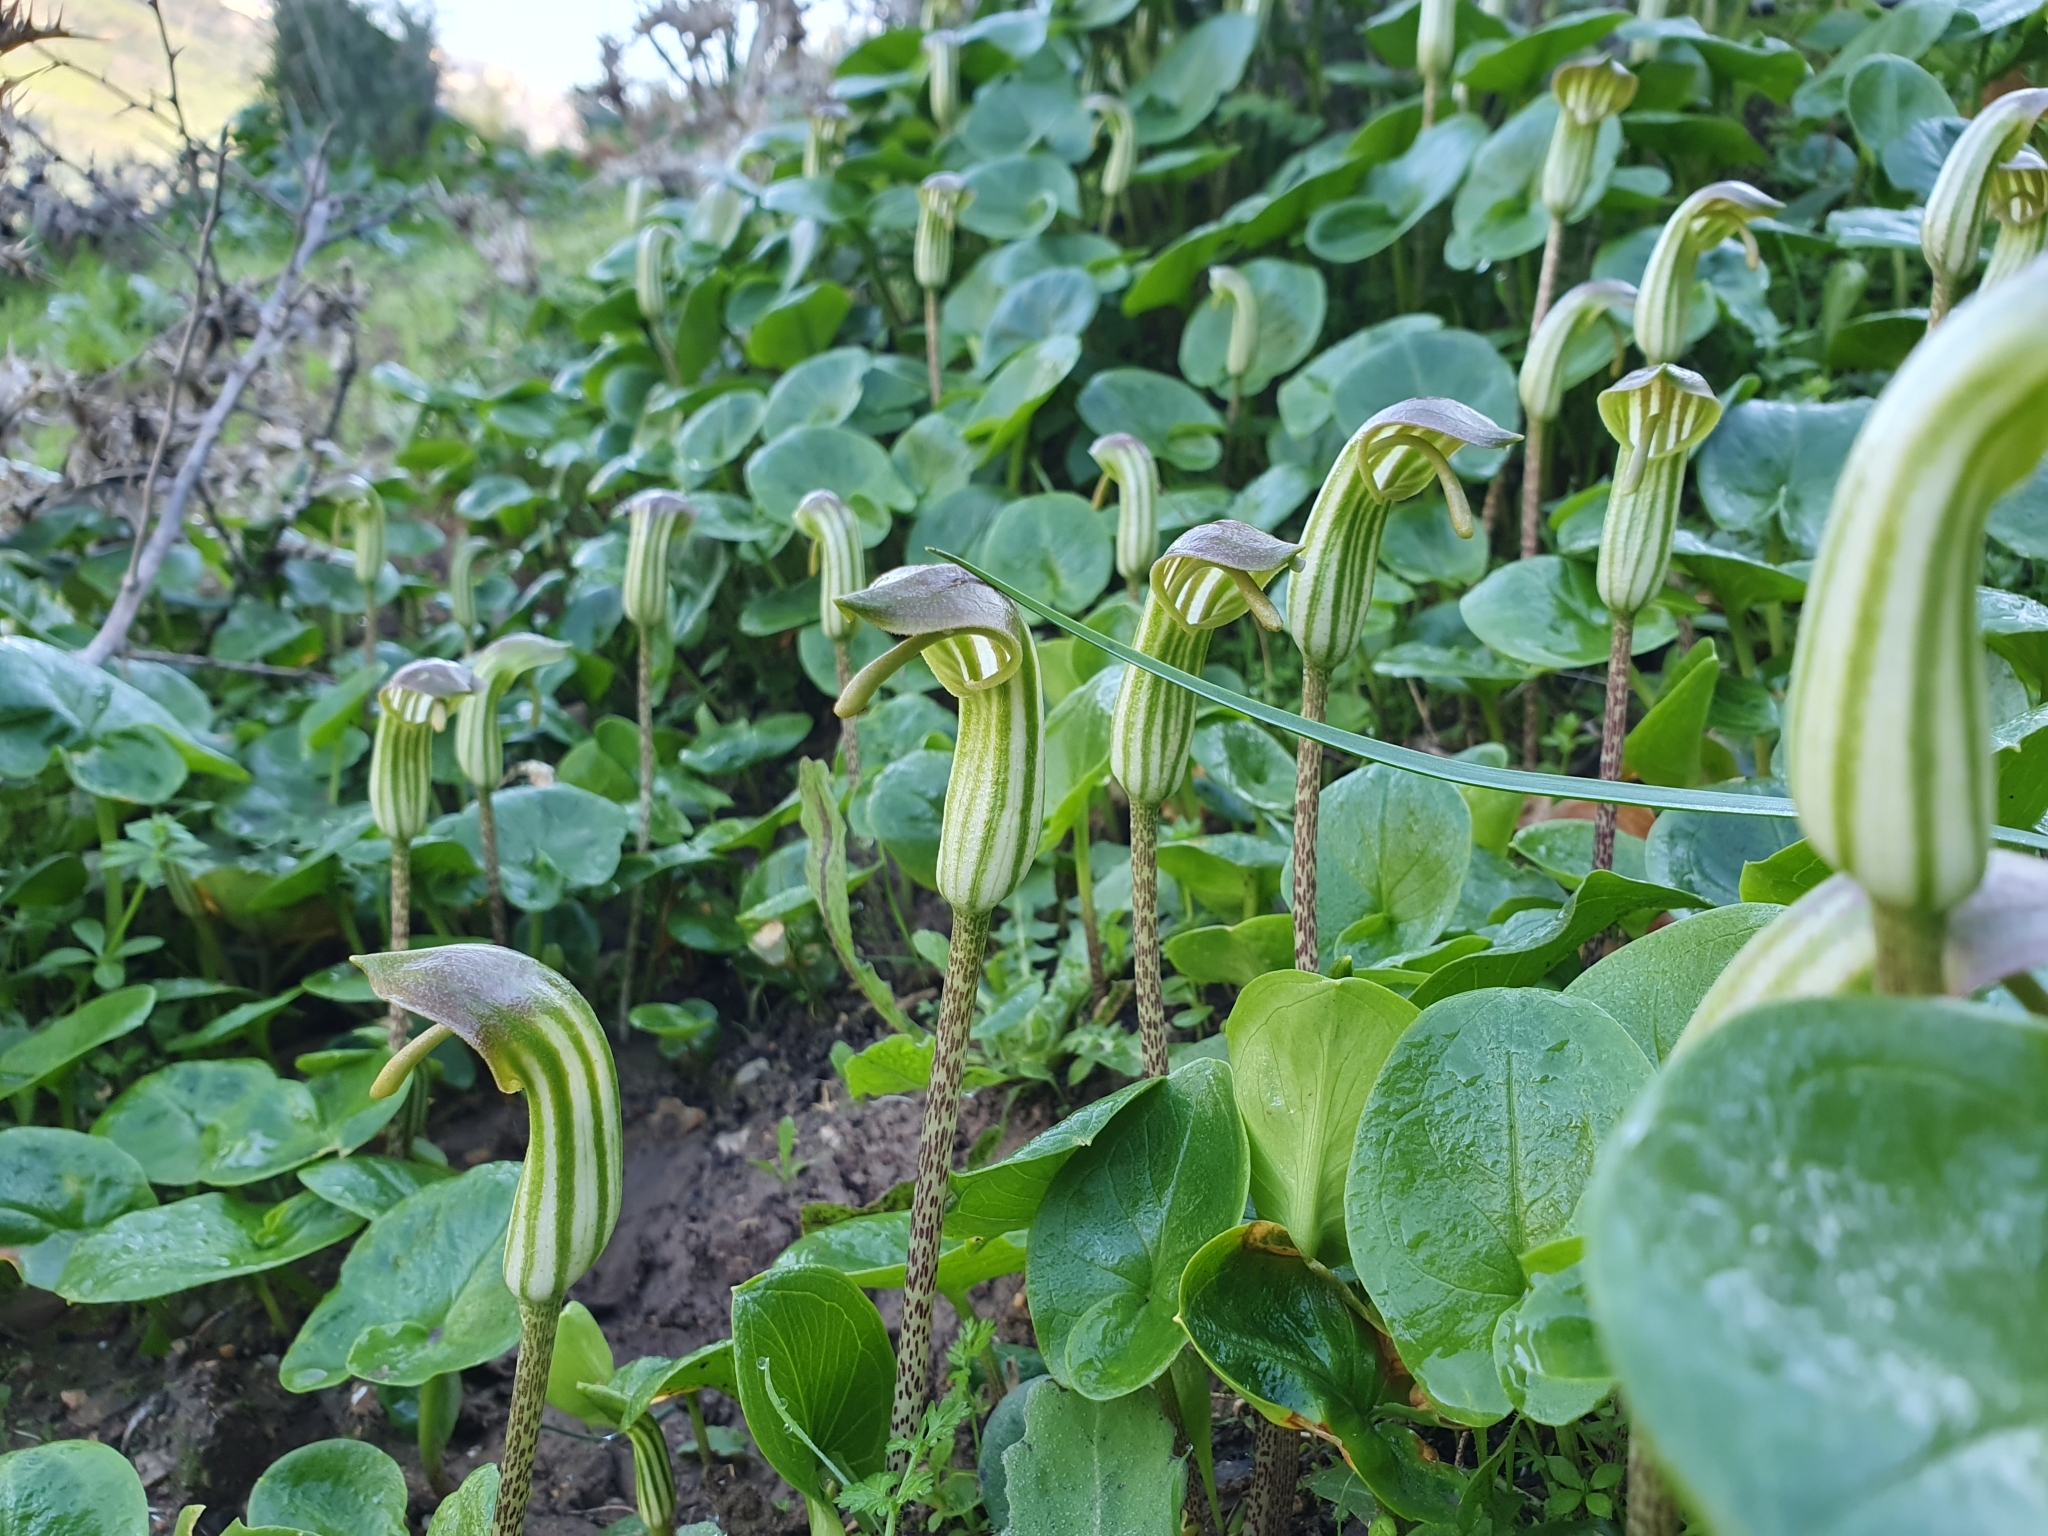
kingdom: Plantae
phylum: Tracheophyta
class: Liliopsida
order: Alismatales
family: Araceae
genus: Arisarum
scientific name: Arisarum vulgare
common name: Common arisarum
